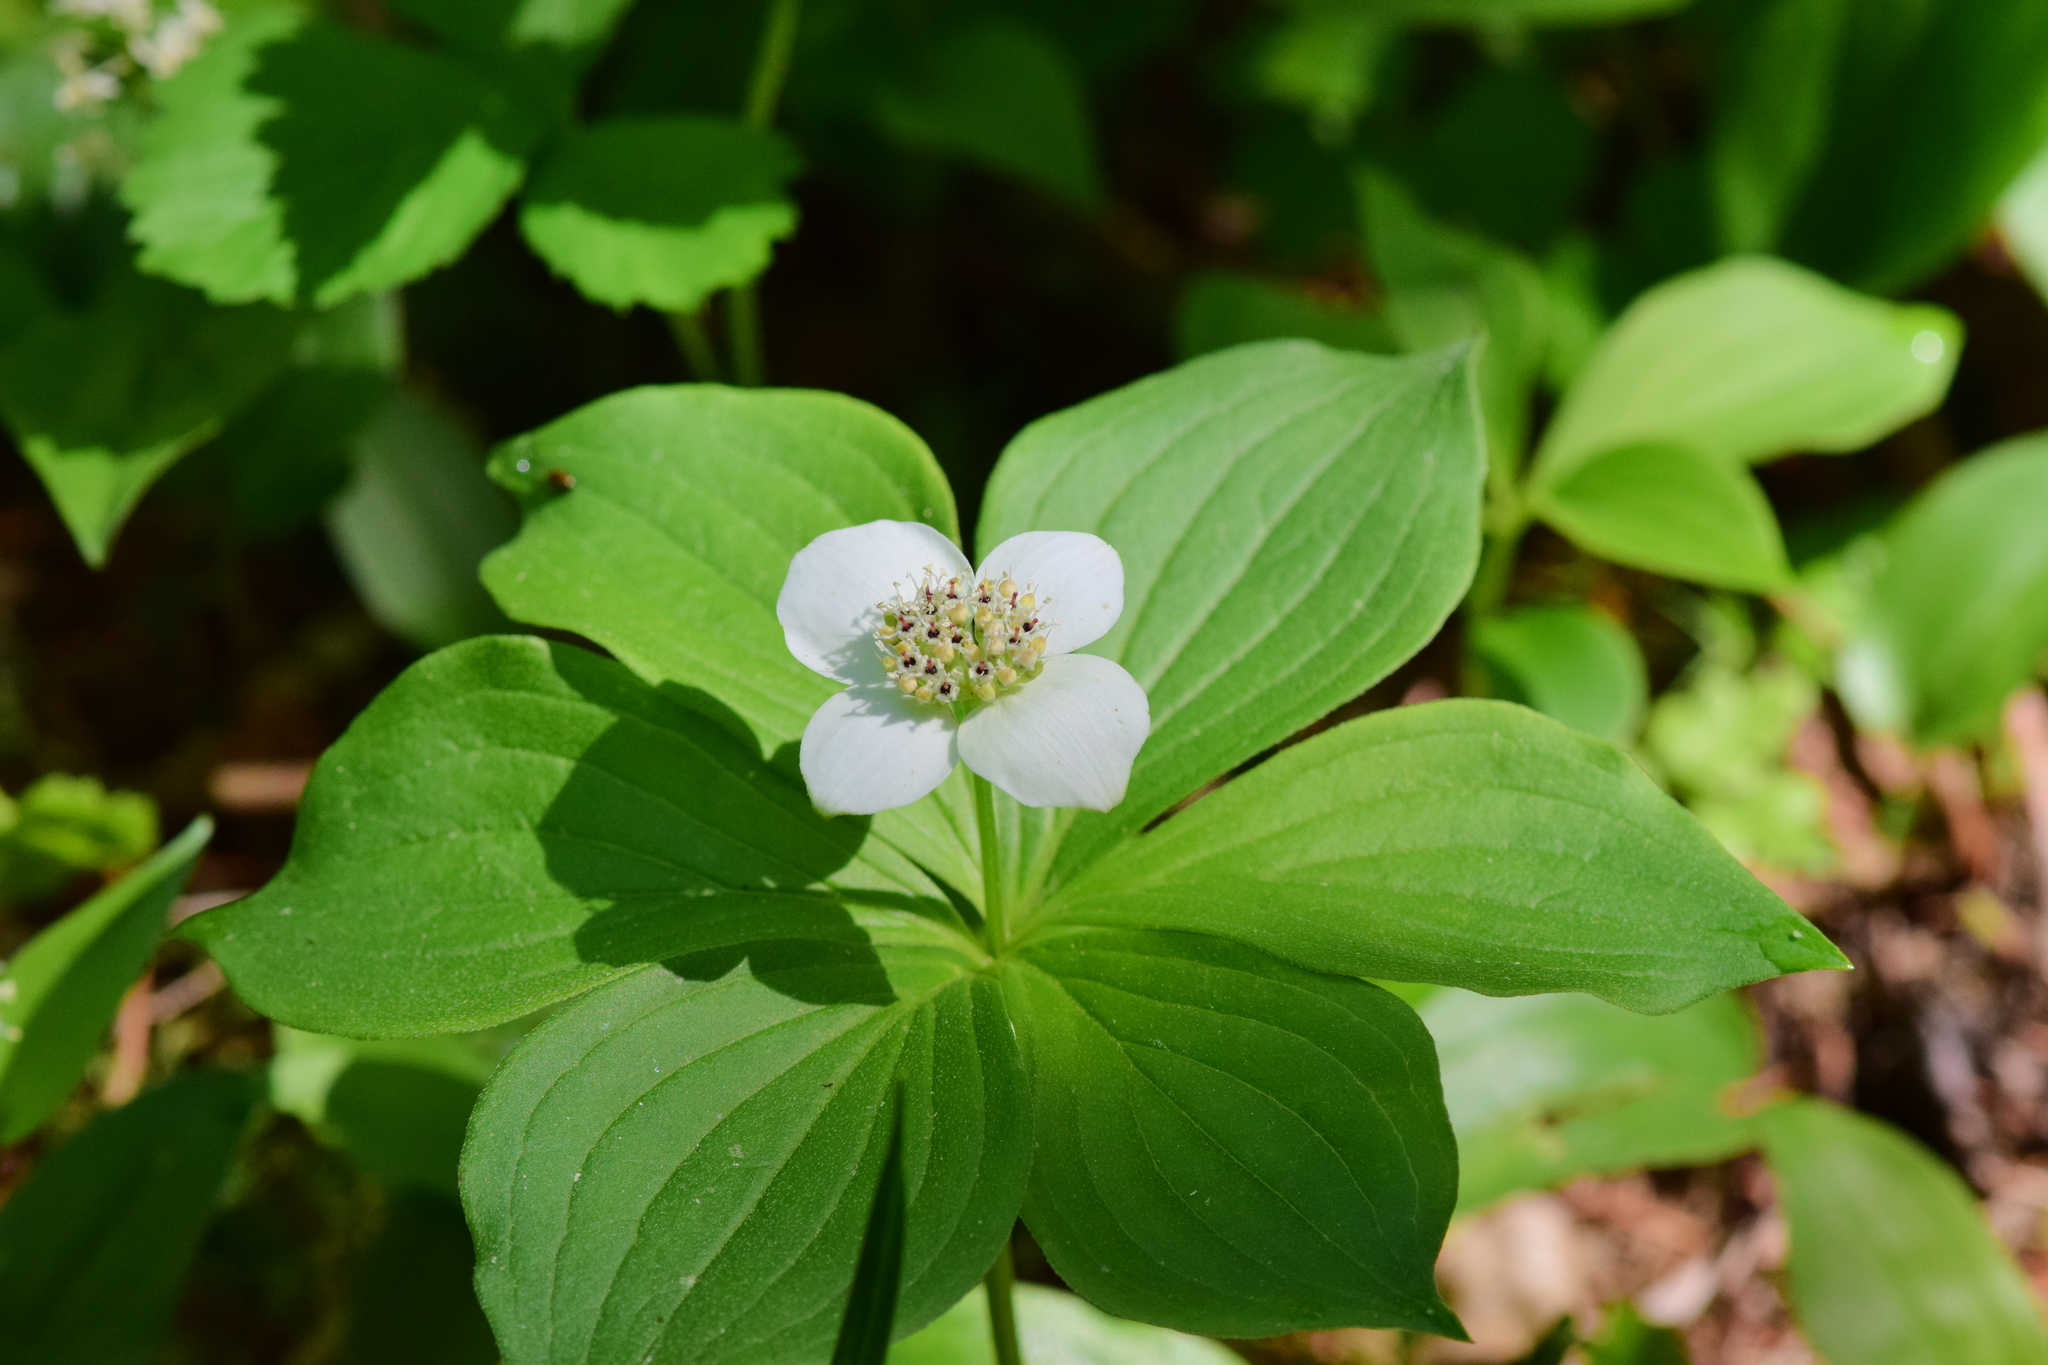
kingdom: Plantae
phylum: Tracheophyta
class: Magnoliopsida
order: Cornales
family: Cornaceae
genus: Cornus
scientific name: Cornus canadensis
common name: Creeping dogwood
